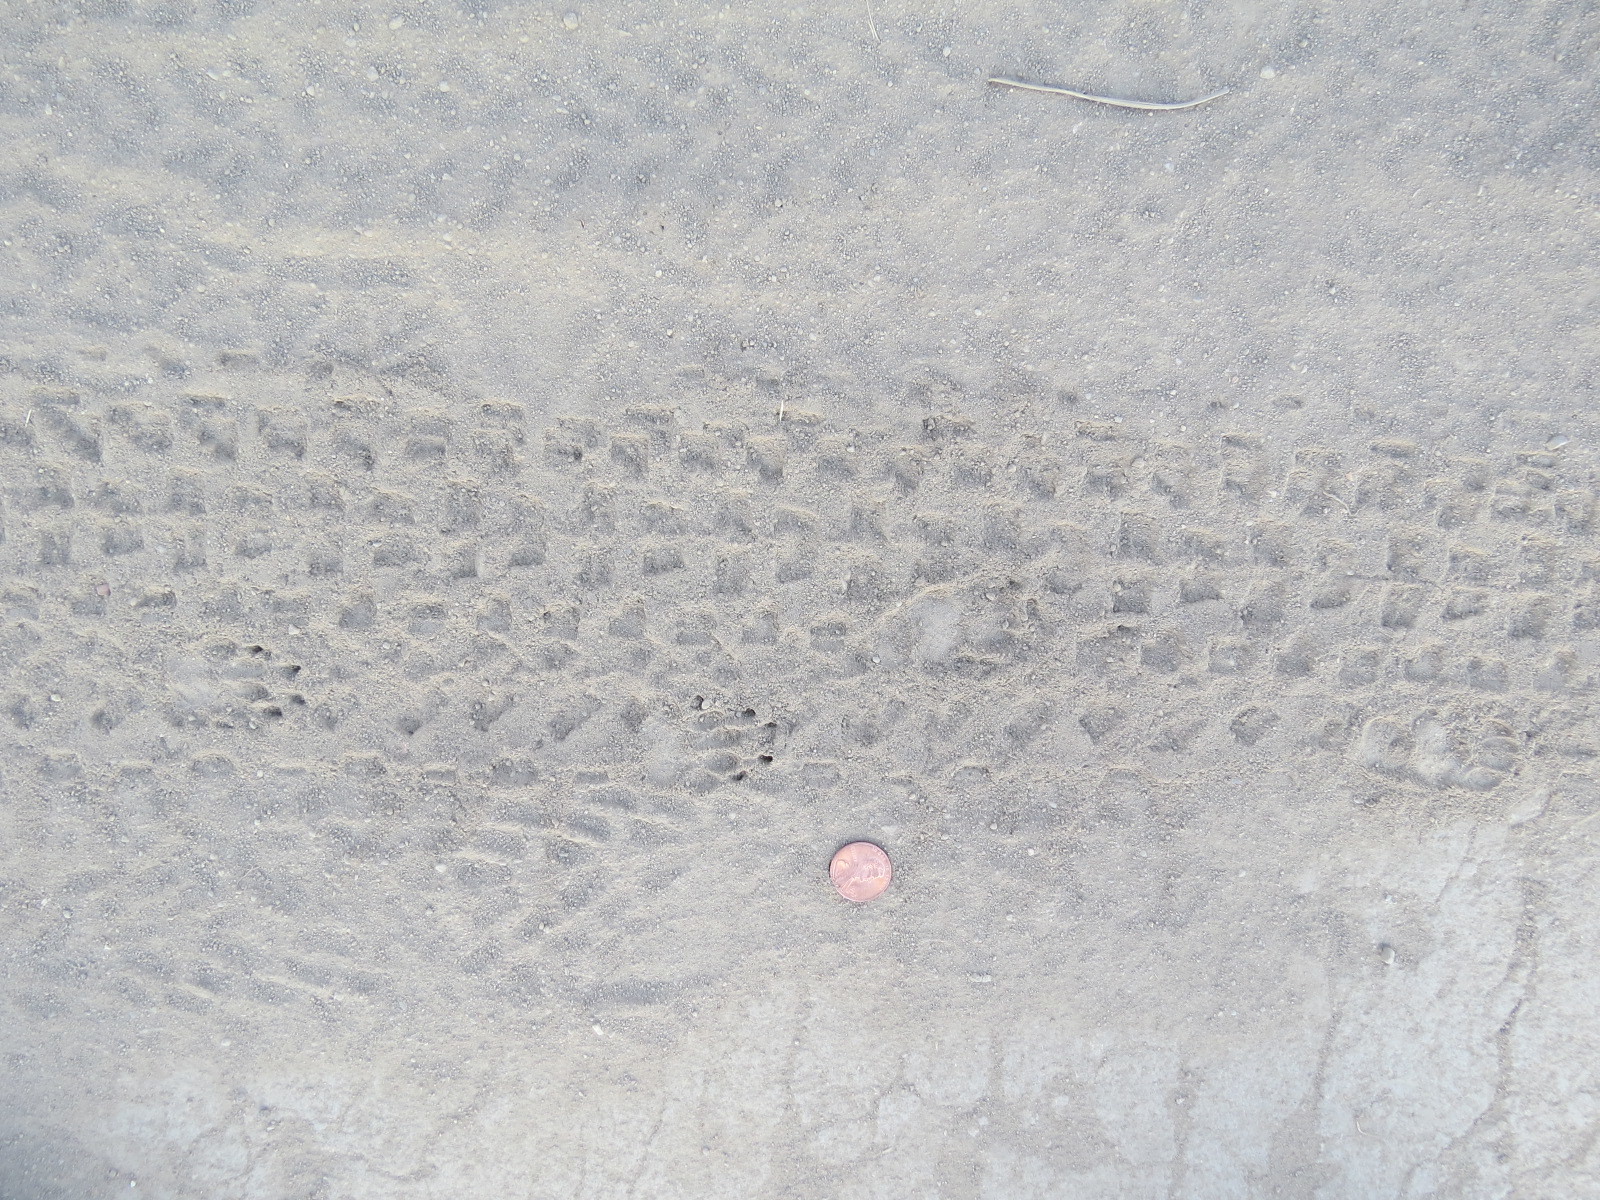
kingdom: Animalia
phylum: Chordata
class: Mammalia
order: Carnivora
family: Mephitidae
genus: Mephitis
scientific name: Mephitis mephitis
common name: Striped skunk
